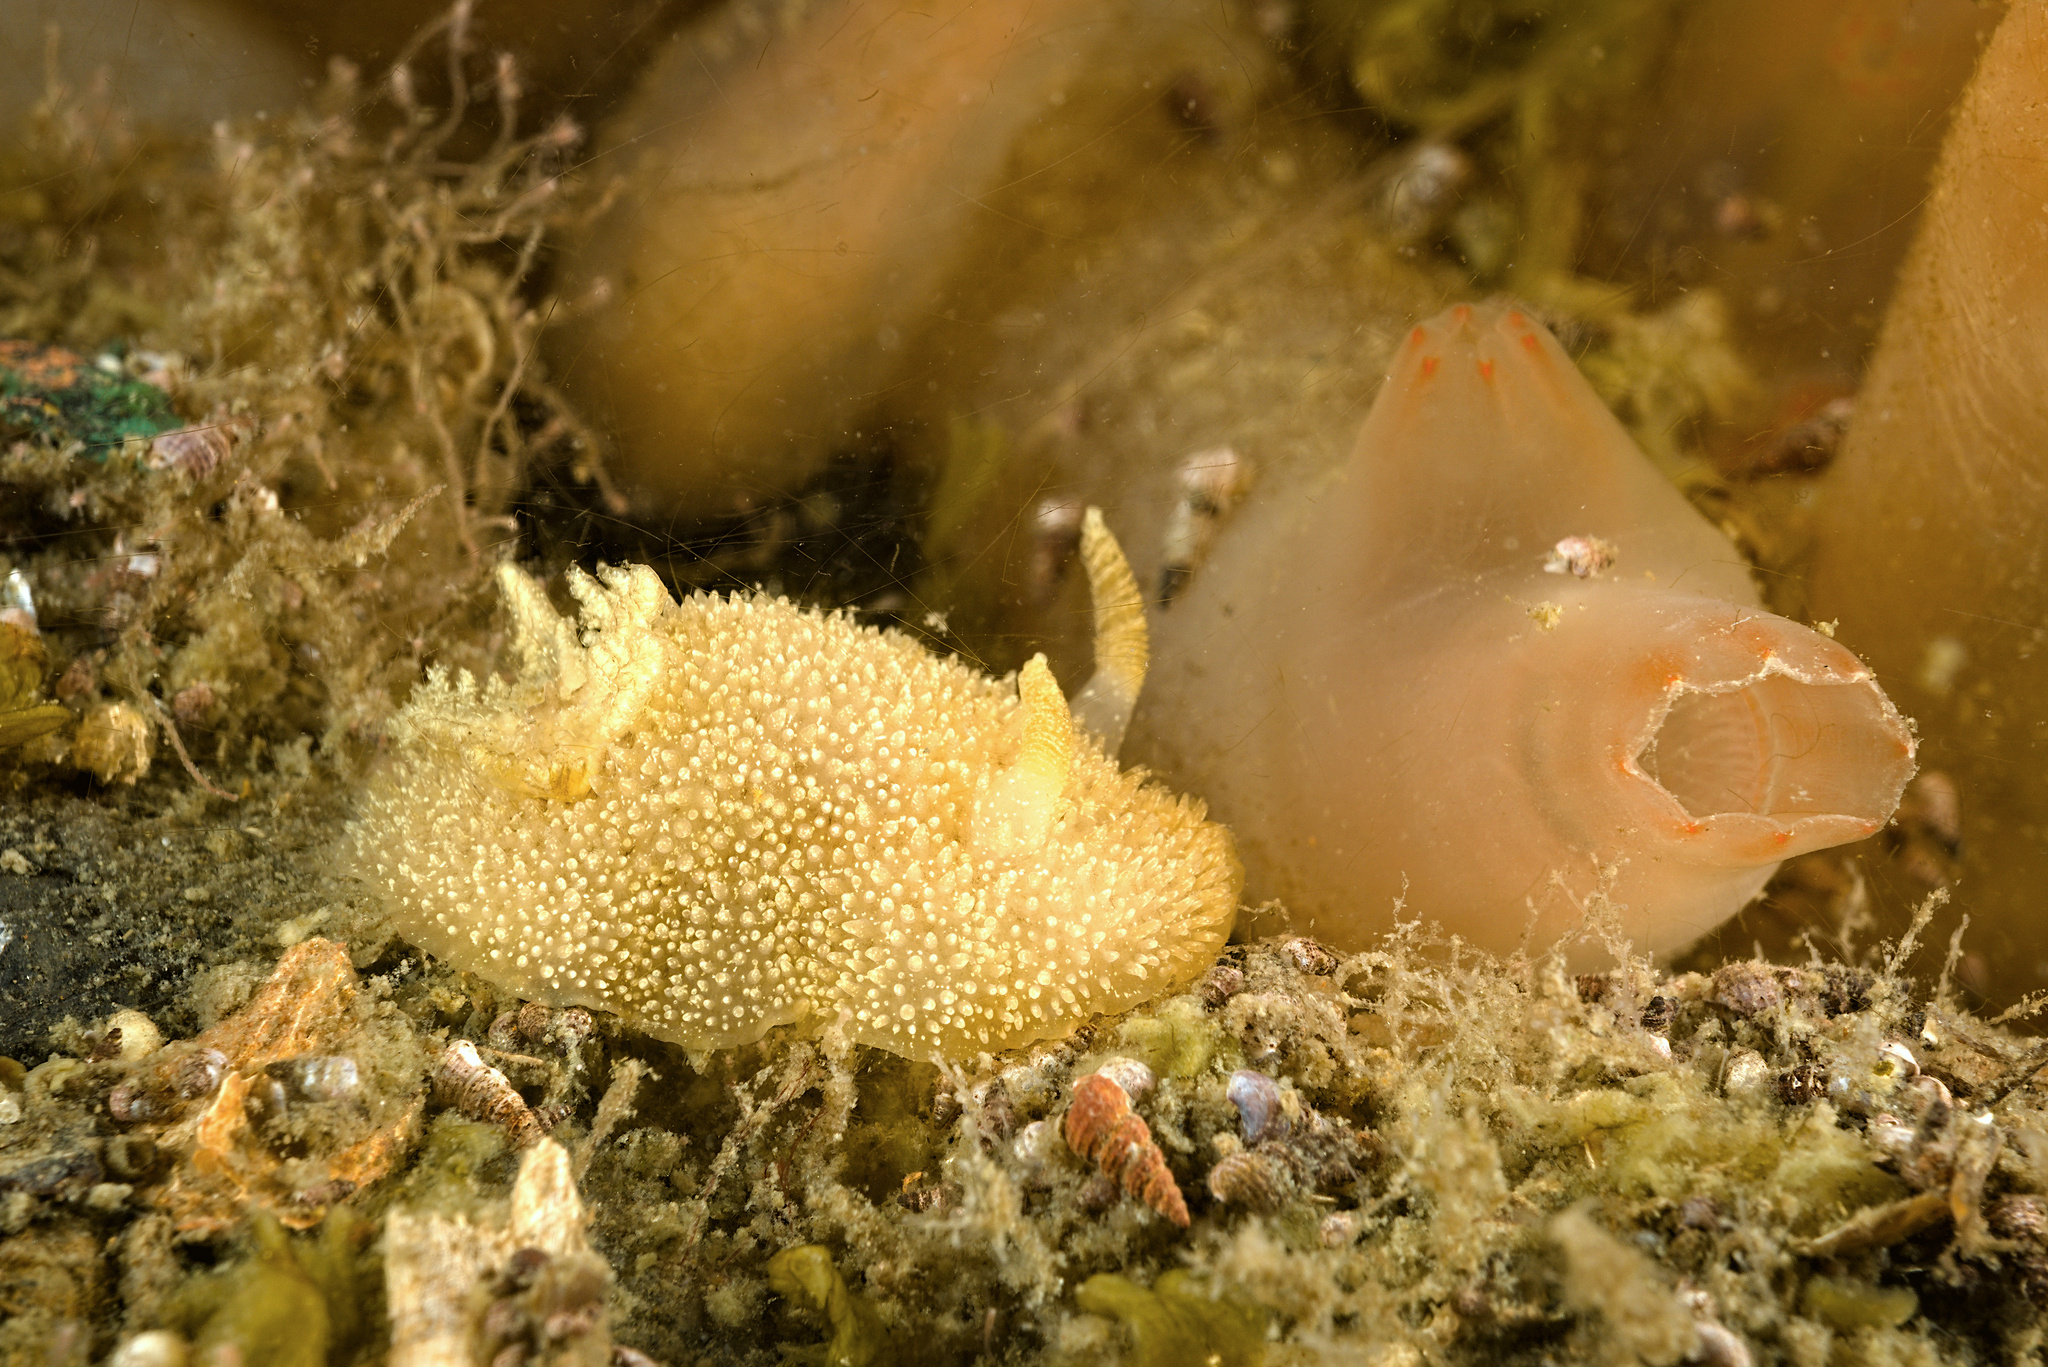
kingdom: Animalia
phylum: Mollusca
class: Gastropoda
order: Nudibranchia
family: Onchidorididae
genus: Acanthodoris
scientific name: Acanthodoris pilosa
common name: Hairy spiny doris
